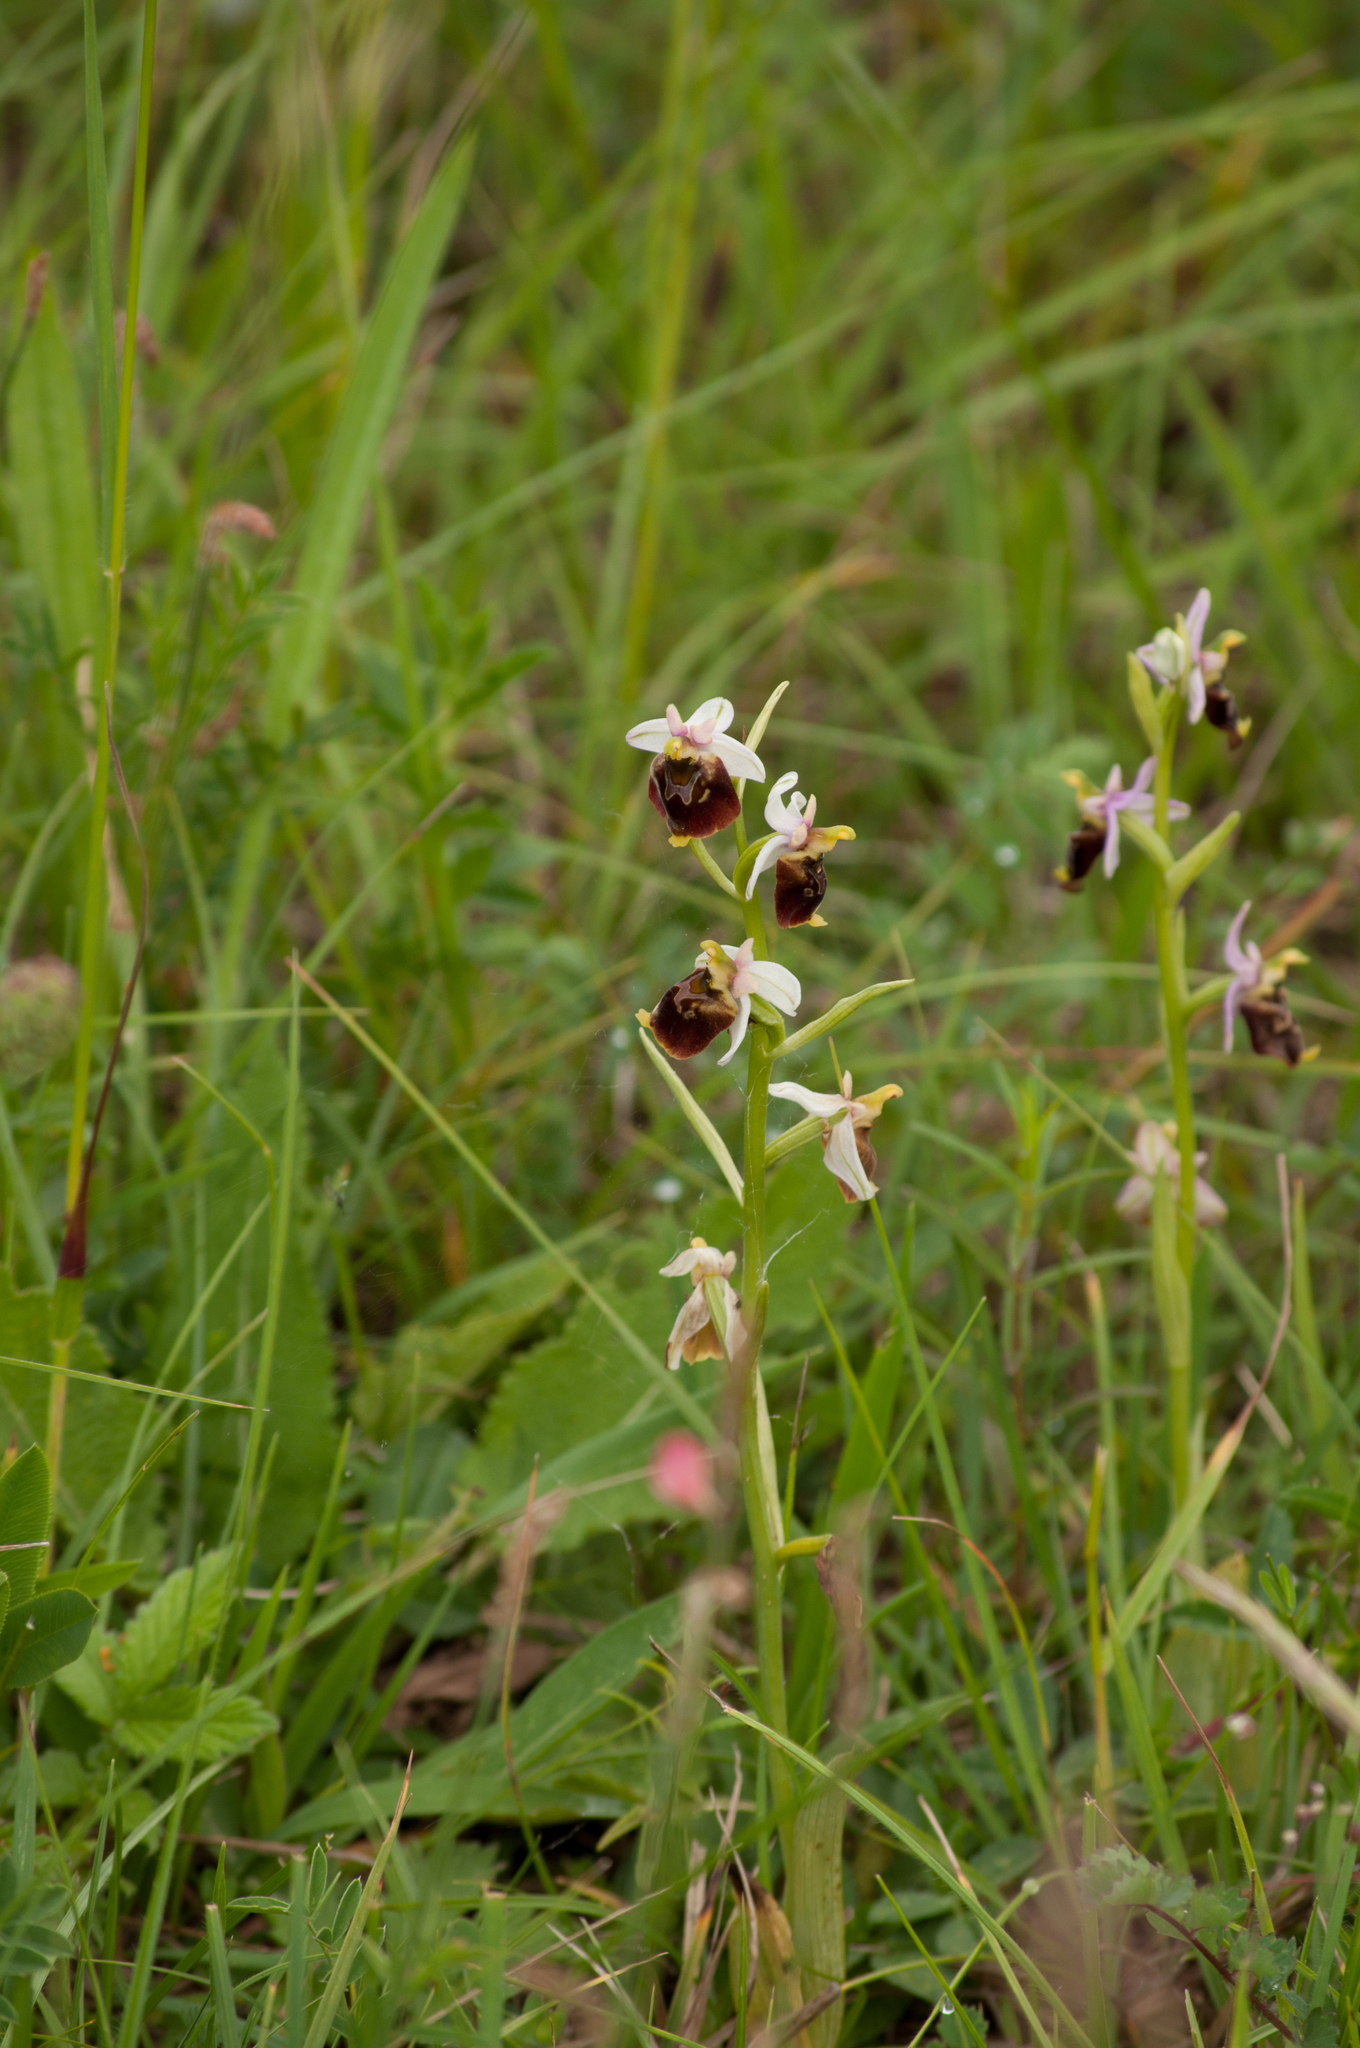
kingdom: Plantae
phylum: Tracheophyta
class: Liliopsida
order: Asparagales
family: Orchidaceae
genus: Ophrys
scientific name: Ophrys holosericea
